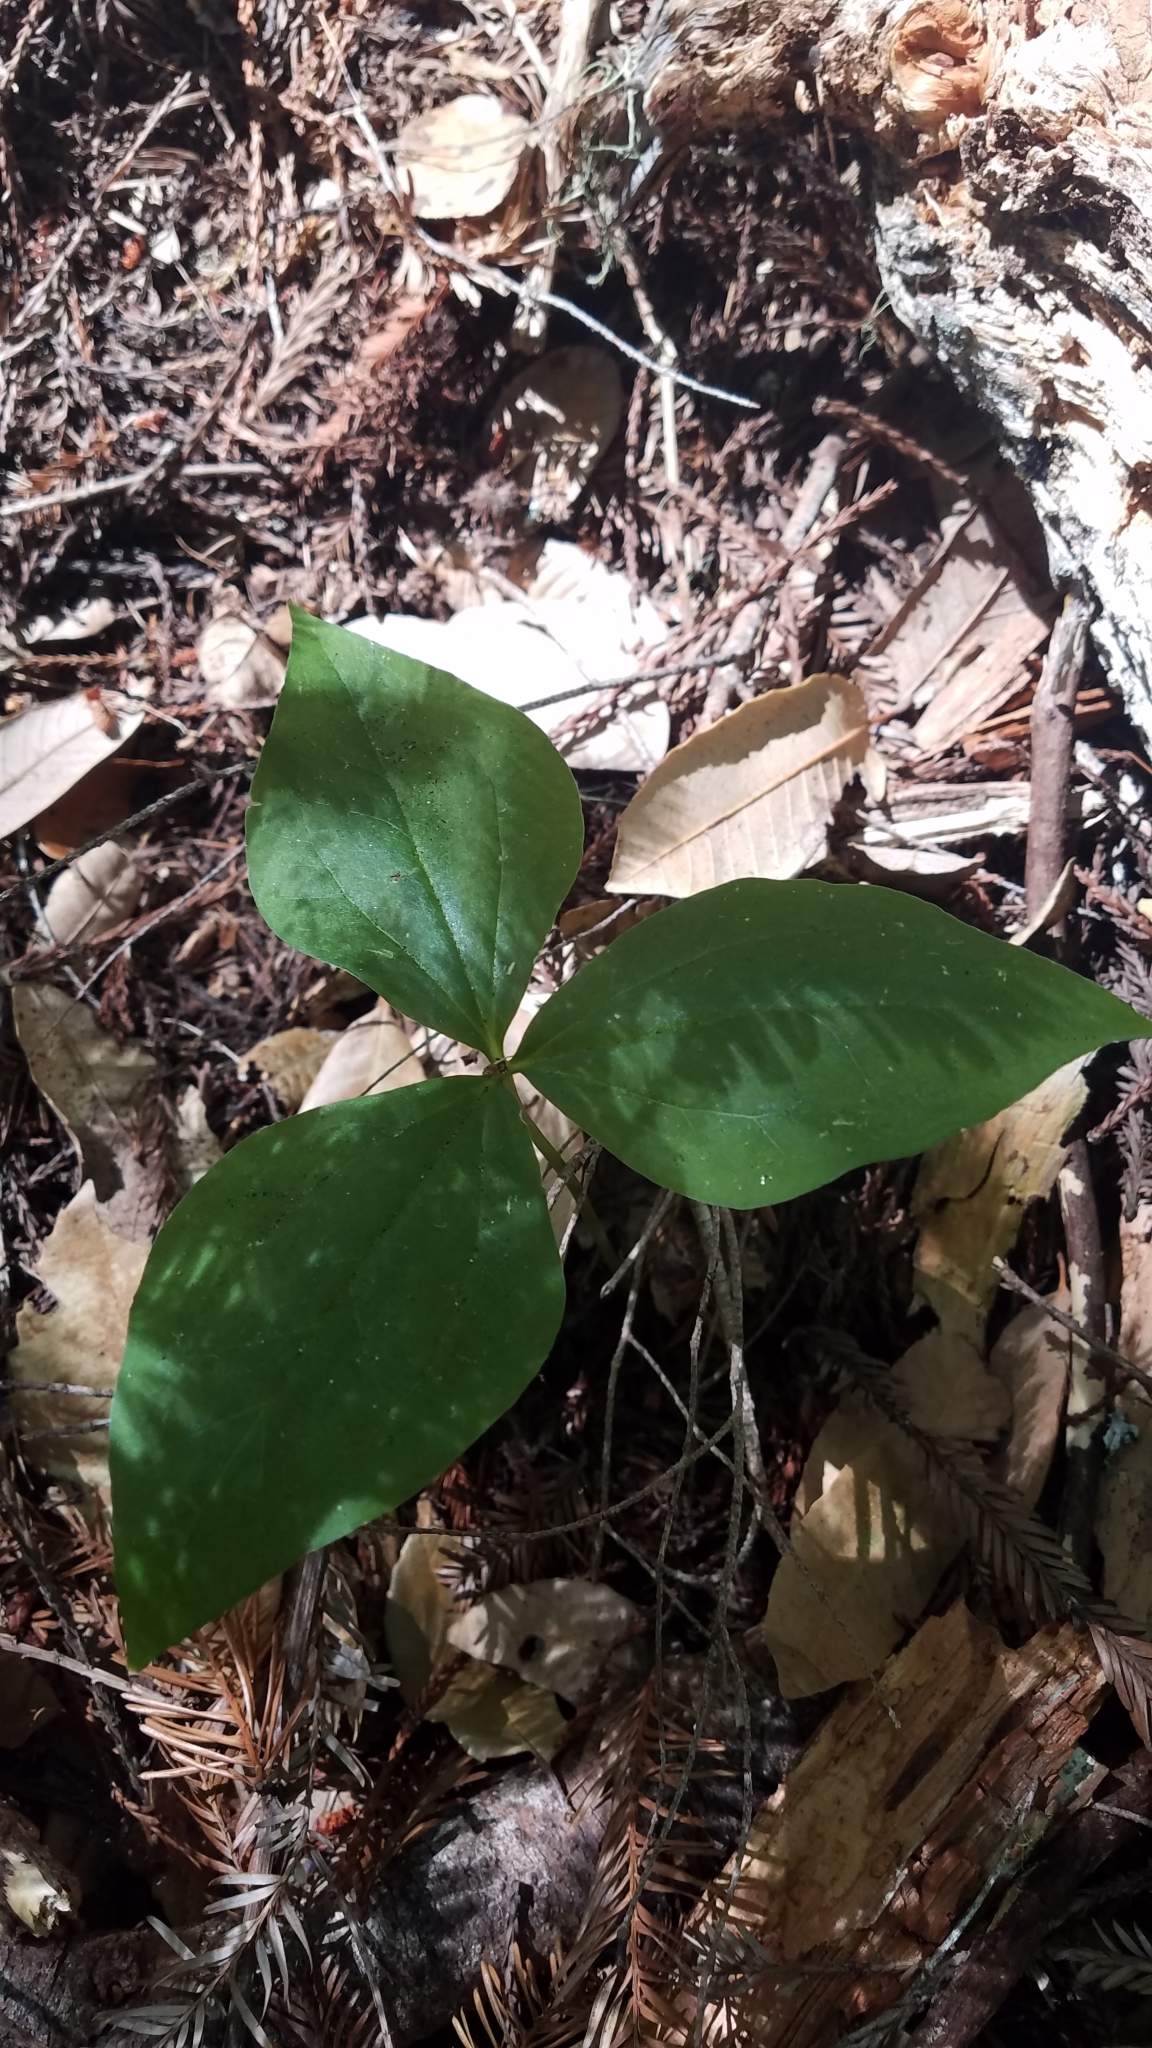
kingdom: Plantae
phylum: Tracheophyta
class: Liliopsida
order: Liliales
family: Melanthiaceae
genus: Trillium
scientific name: Trillium ovatum
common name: Pacific trillium
